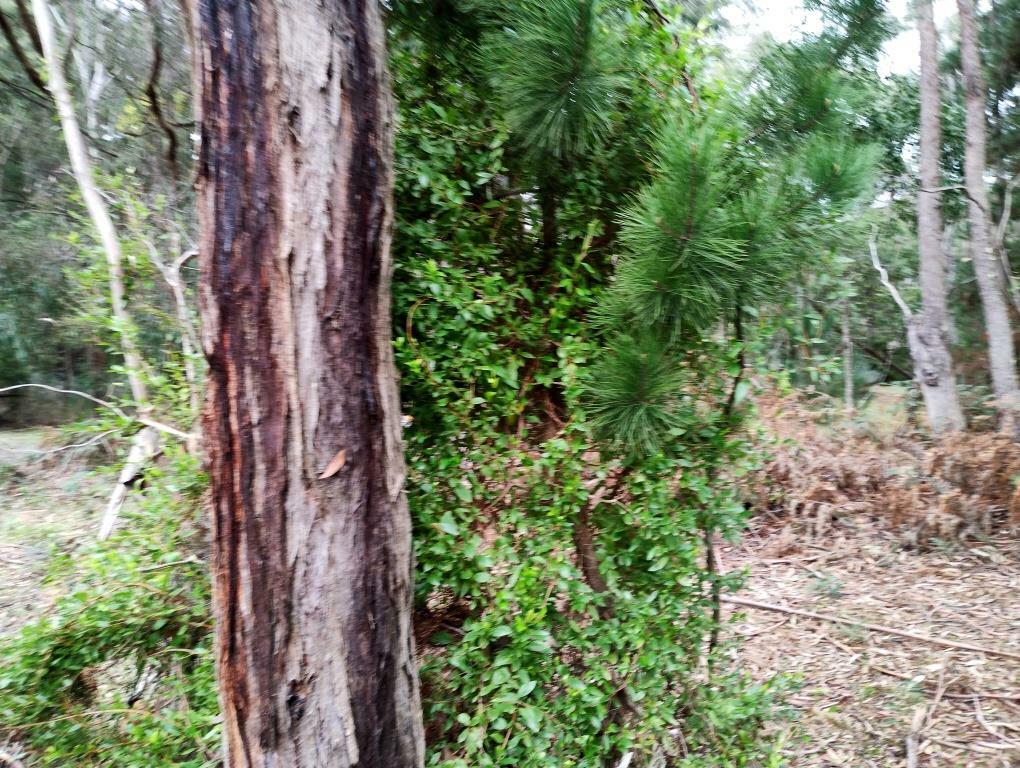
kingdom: Plantae
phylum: Tracheophyta
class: Magnoliopsida
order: Apiales
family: Pittosporaceae
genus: Billardiera
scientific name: Billardiera fusiformis
